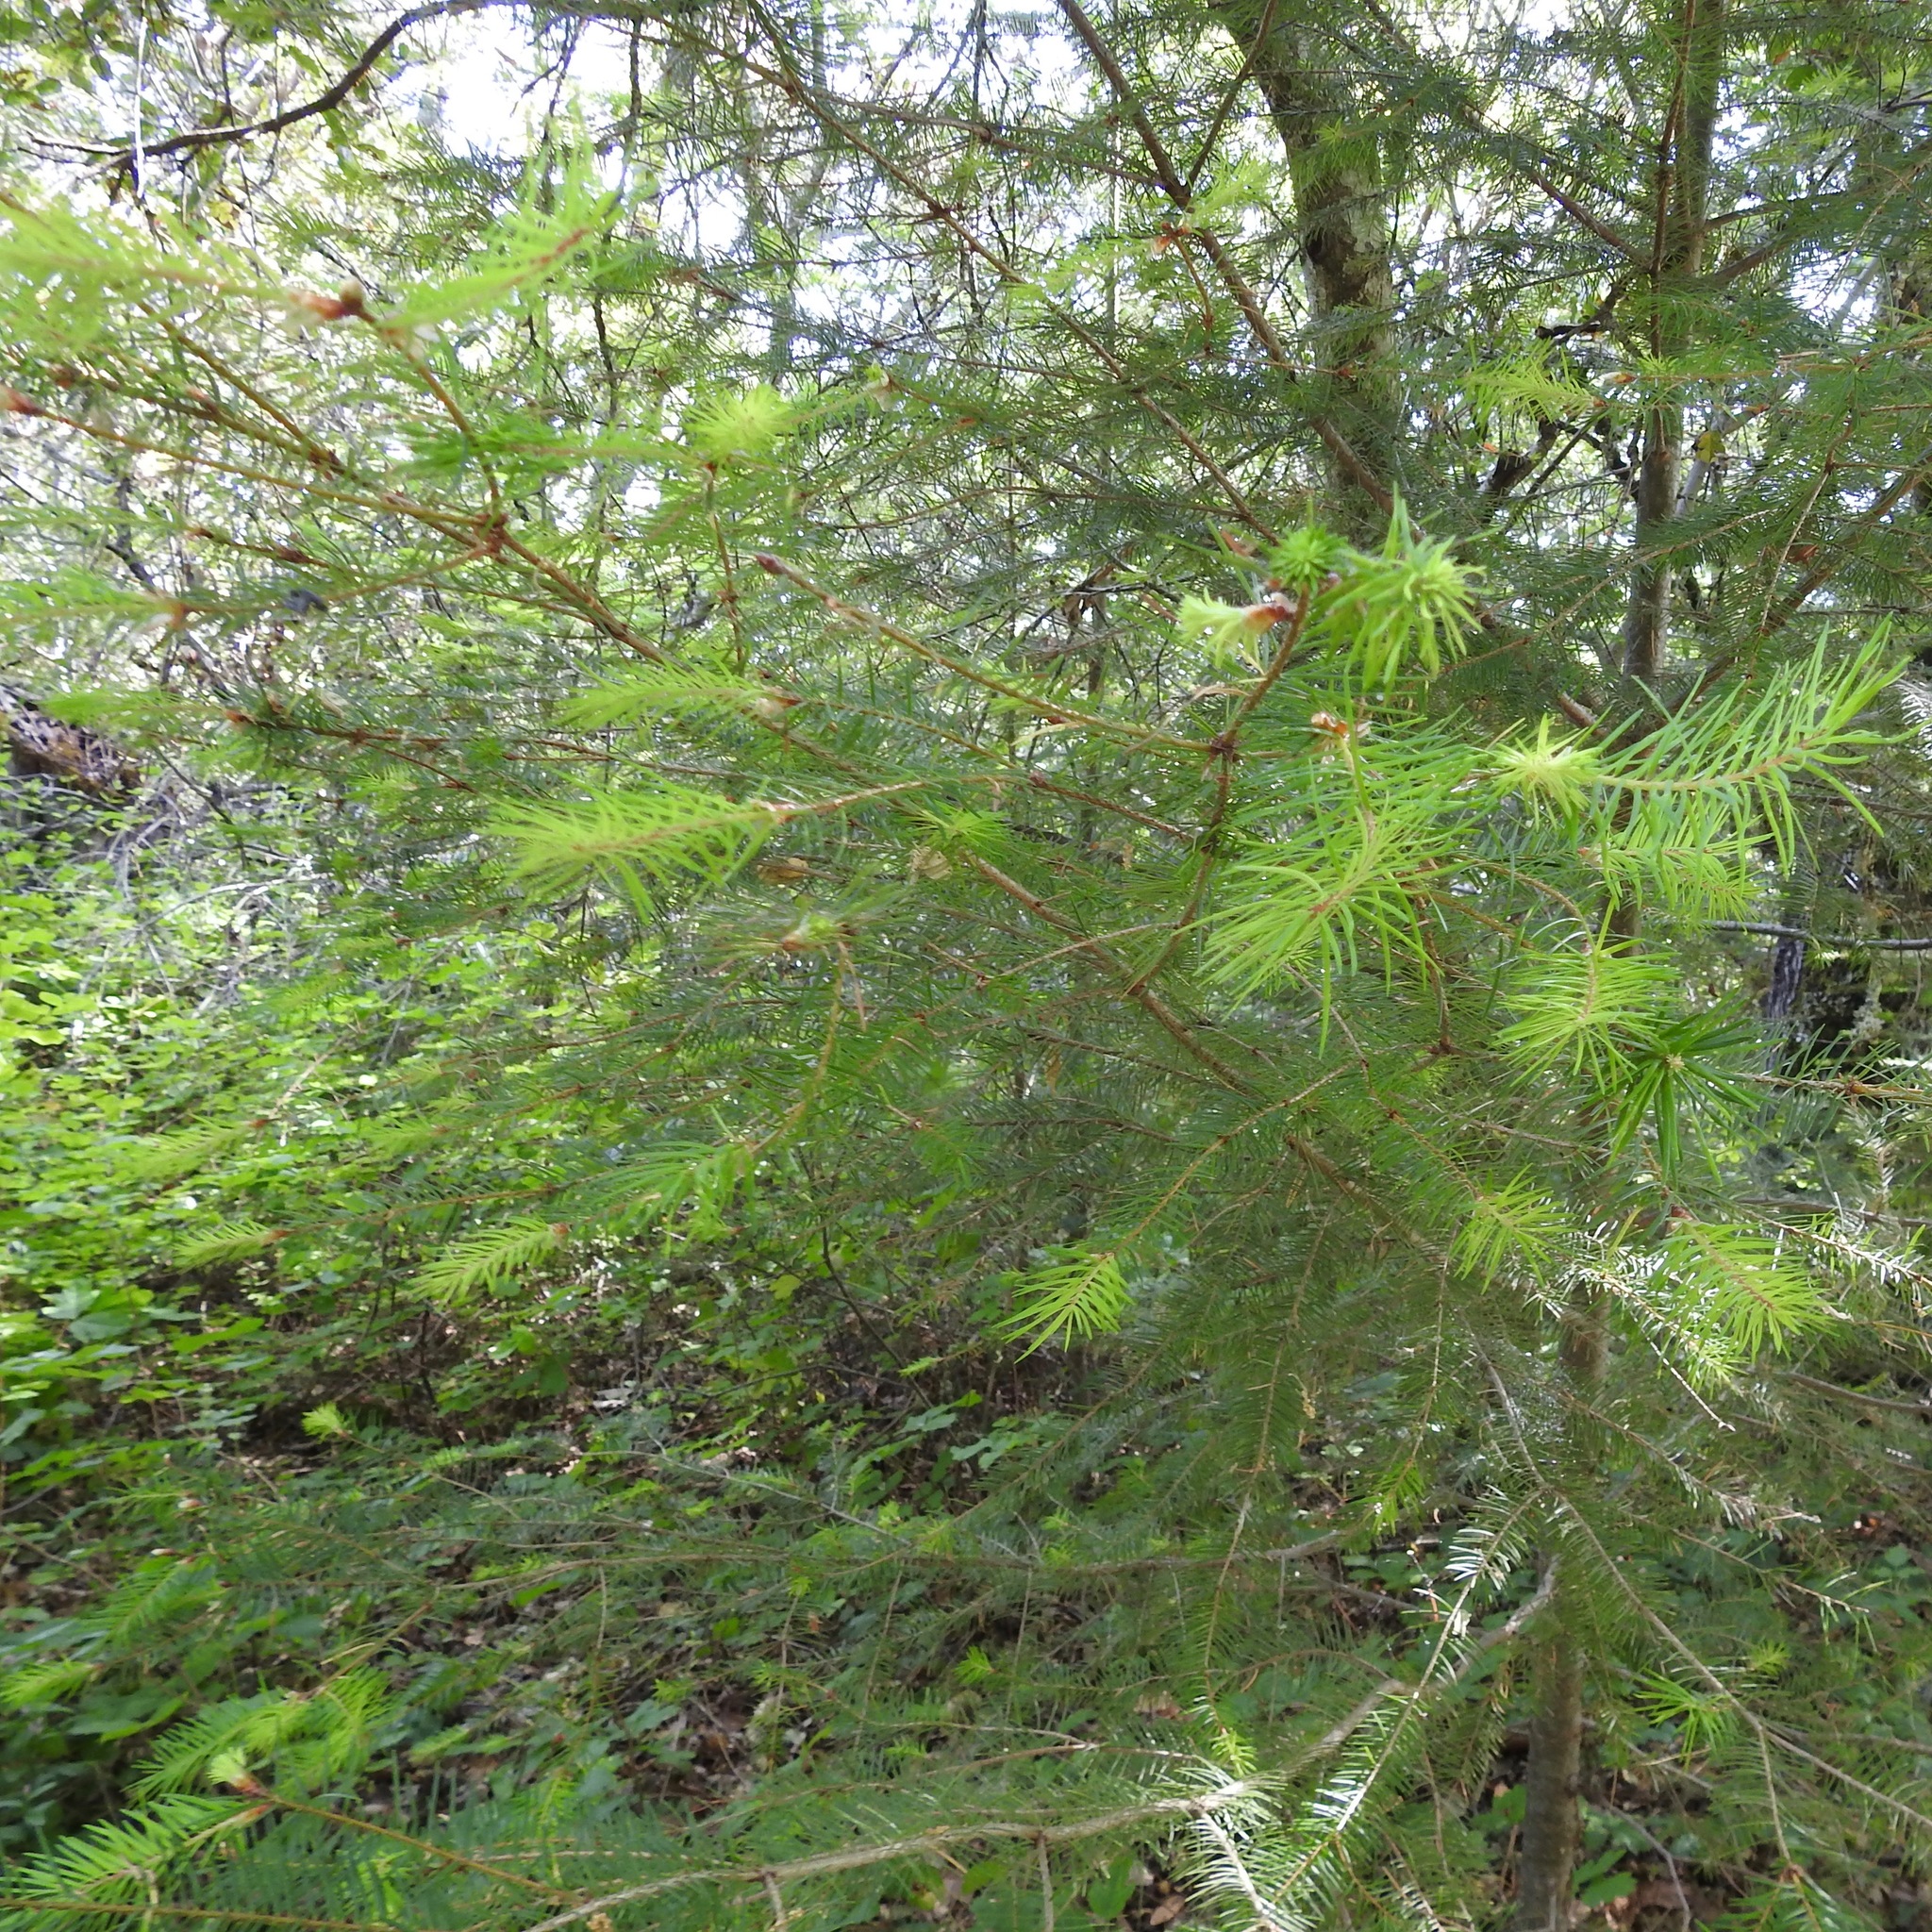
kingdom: Plantae
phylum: Tracheophyta
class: Pinopsida
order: Pinales
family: Pinaceae
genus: Pseudotsuga
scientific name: Pseudotsuga menziesii
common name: Douglas fir
